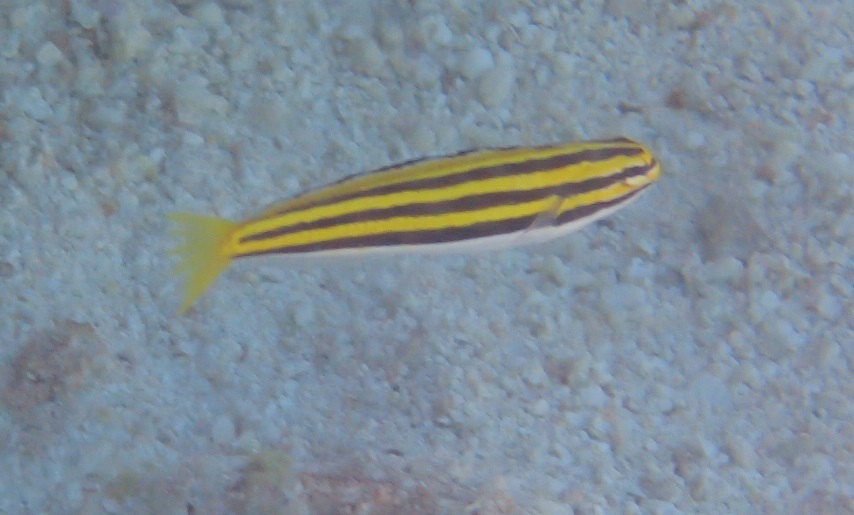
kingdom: Animalia
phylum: Chordata
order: Perciformes
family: Blenniidae
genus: Meiacanthus
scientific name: Meiacanthus lineatus
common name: Lined fangblenny
